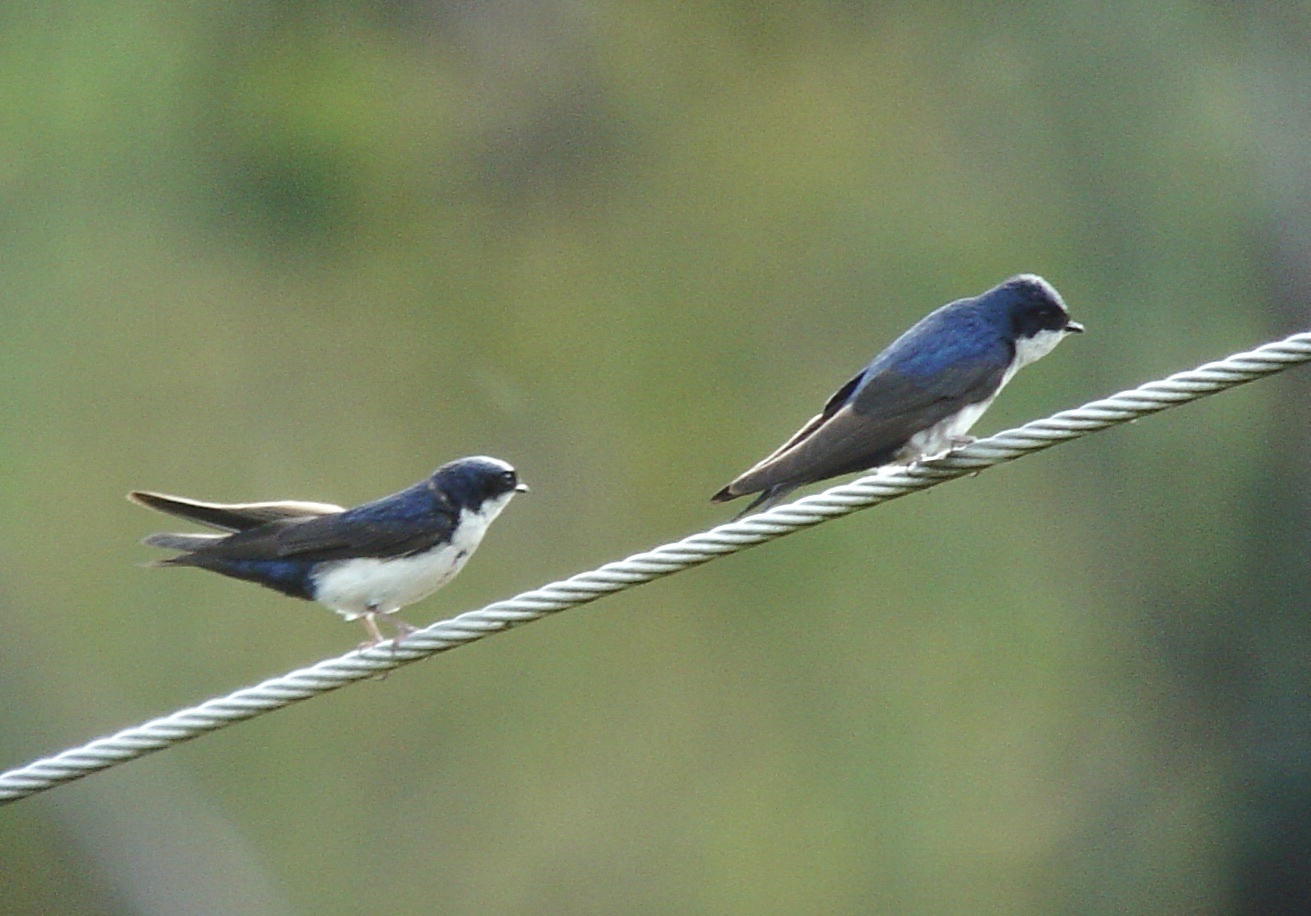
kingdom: Animalia
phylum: Chordata
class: Aves
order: Passeriformes
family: Hirundinidae
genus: Notiochelidon
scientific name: Notiochelidon cyanoleuca
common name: Blue-and-white swallow
